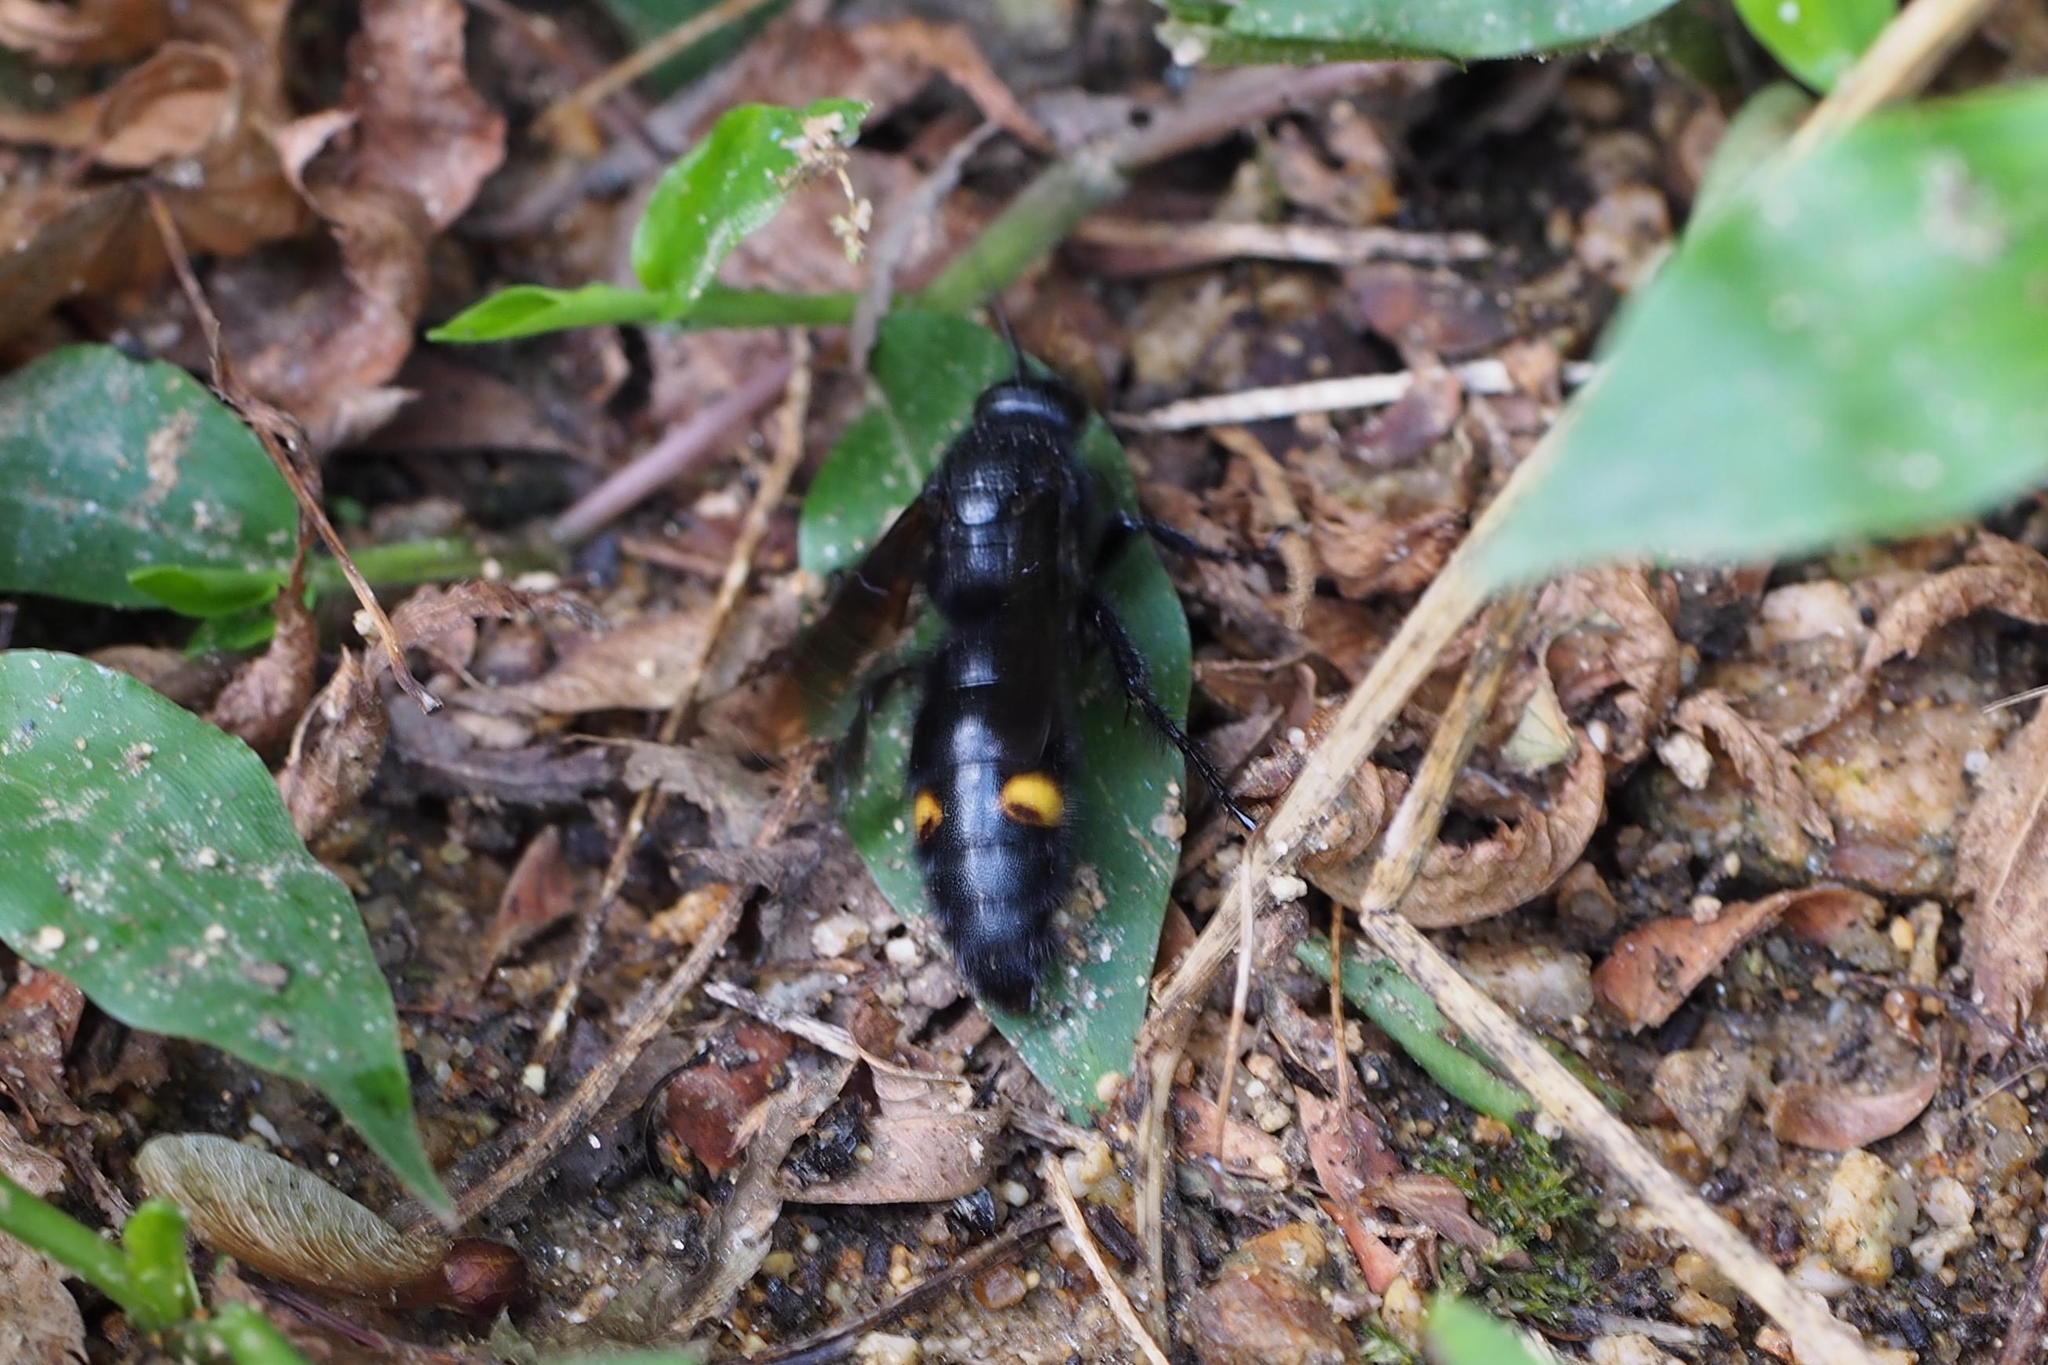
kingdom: Animalia
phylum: Arthropoda
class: Insecta
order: Hymenoptera
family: Scoliidae
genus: Scolia
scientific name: Scolia oculata
